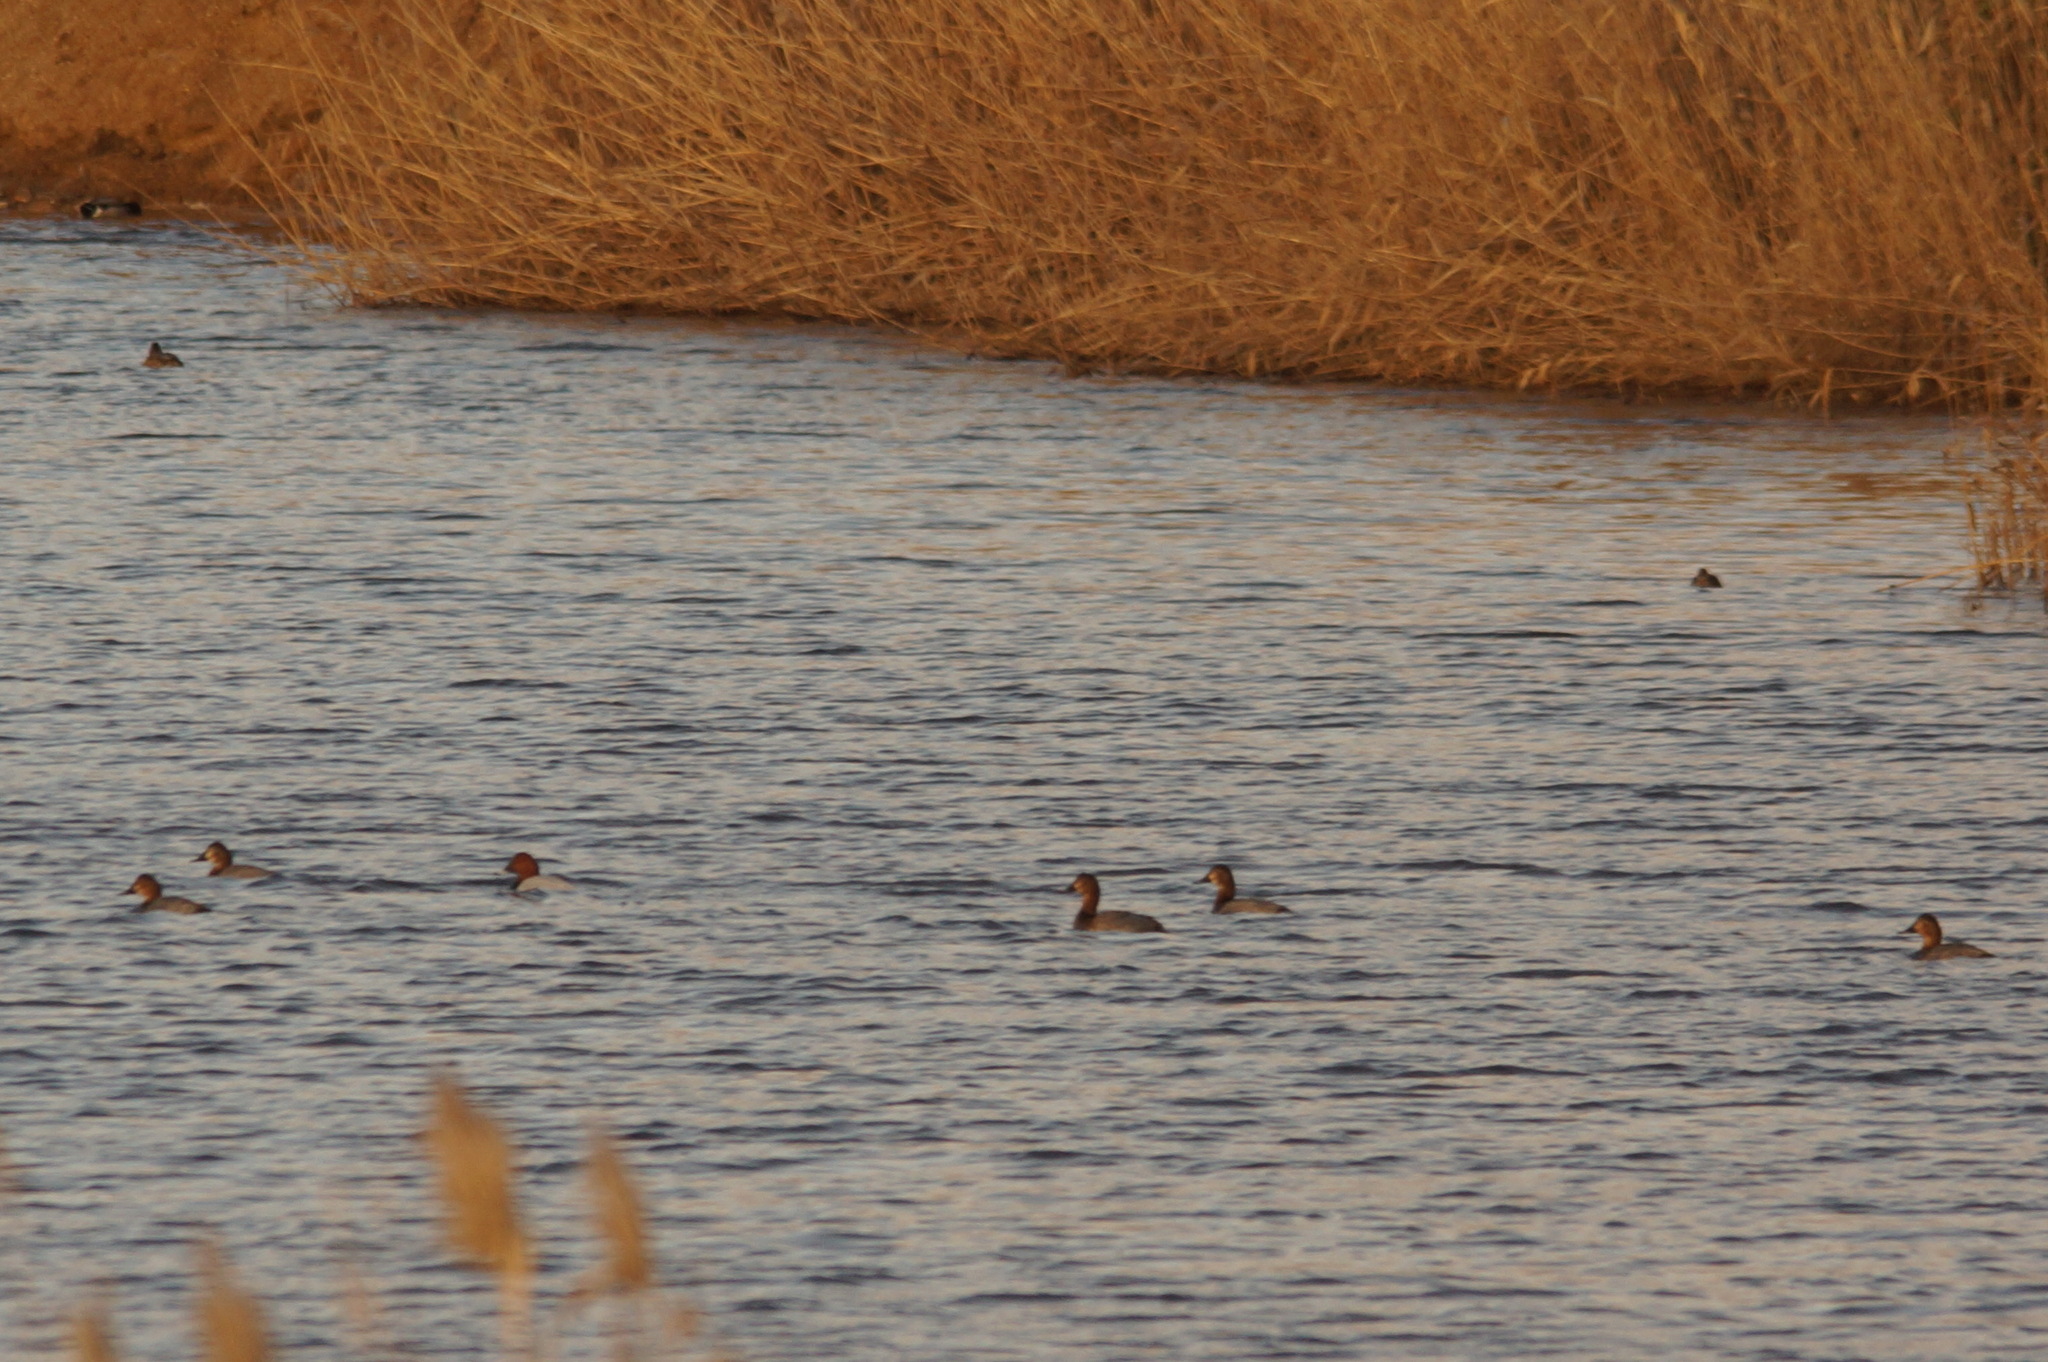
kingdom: Animalia
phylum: Chordata
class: Aves
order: Anseriformes
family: Anatidae
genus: Aythya
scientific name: Aythya ferina
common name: Common pochard
